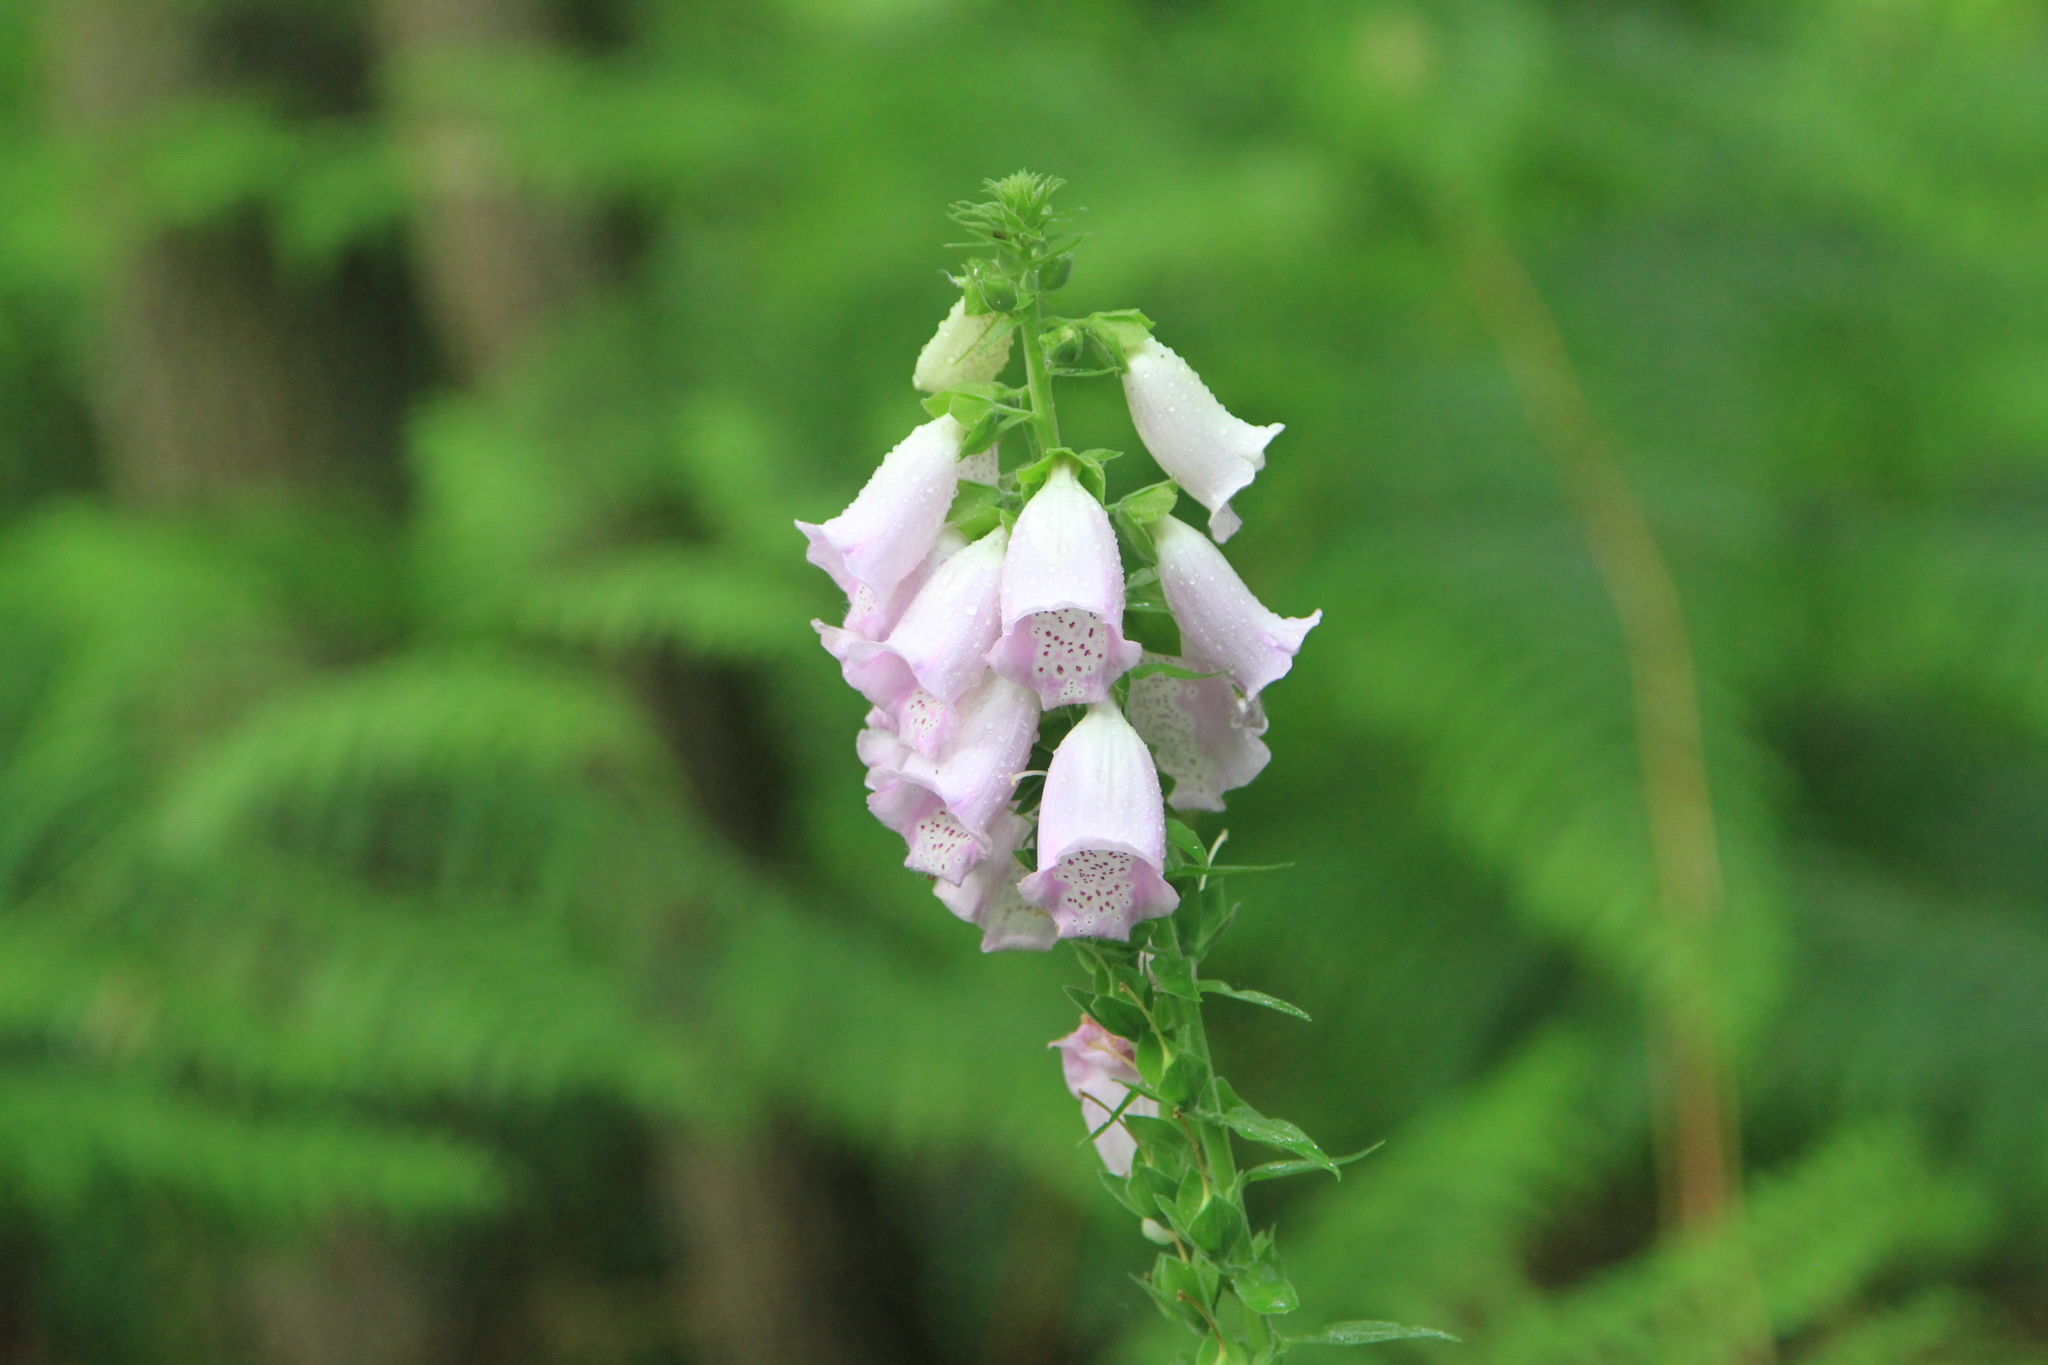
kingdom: Plantae
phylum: Tracheophyta
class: Magnoliopsida
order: Lamiales
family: Plantaginaceae
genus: Digitalis
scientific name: Digitalis purpurea
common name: Foxglove
